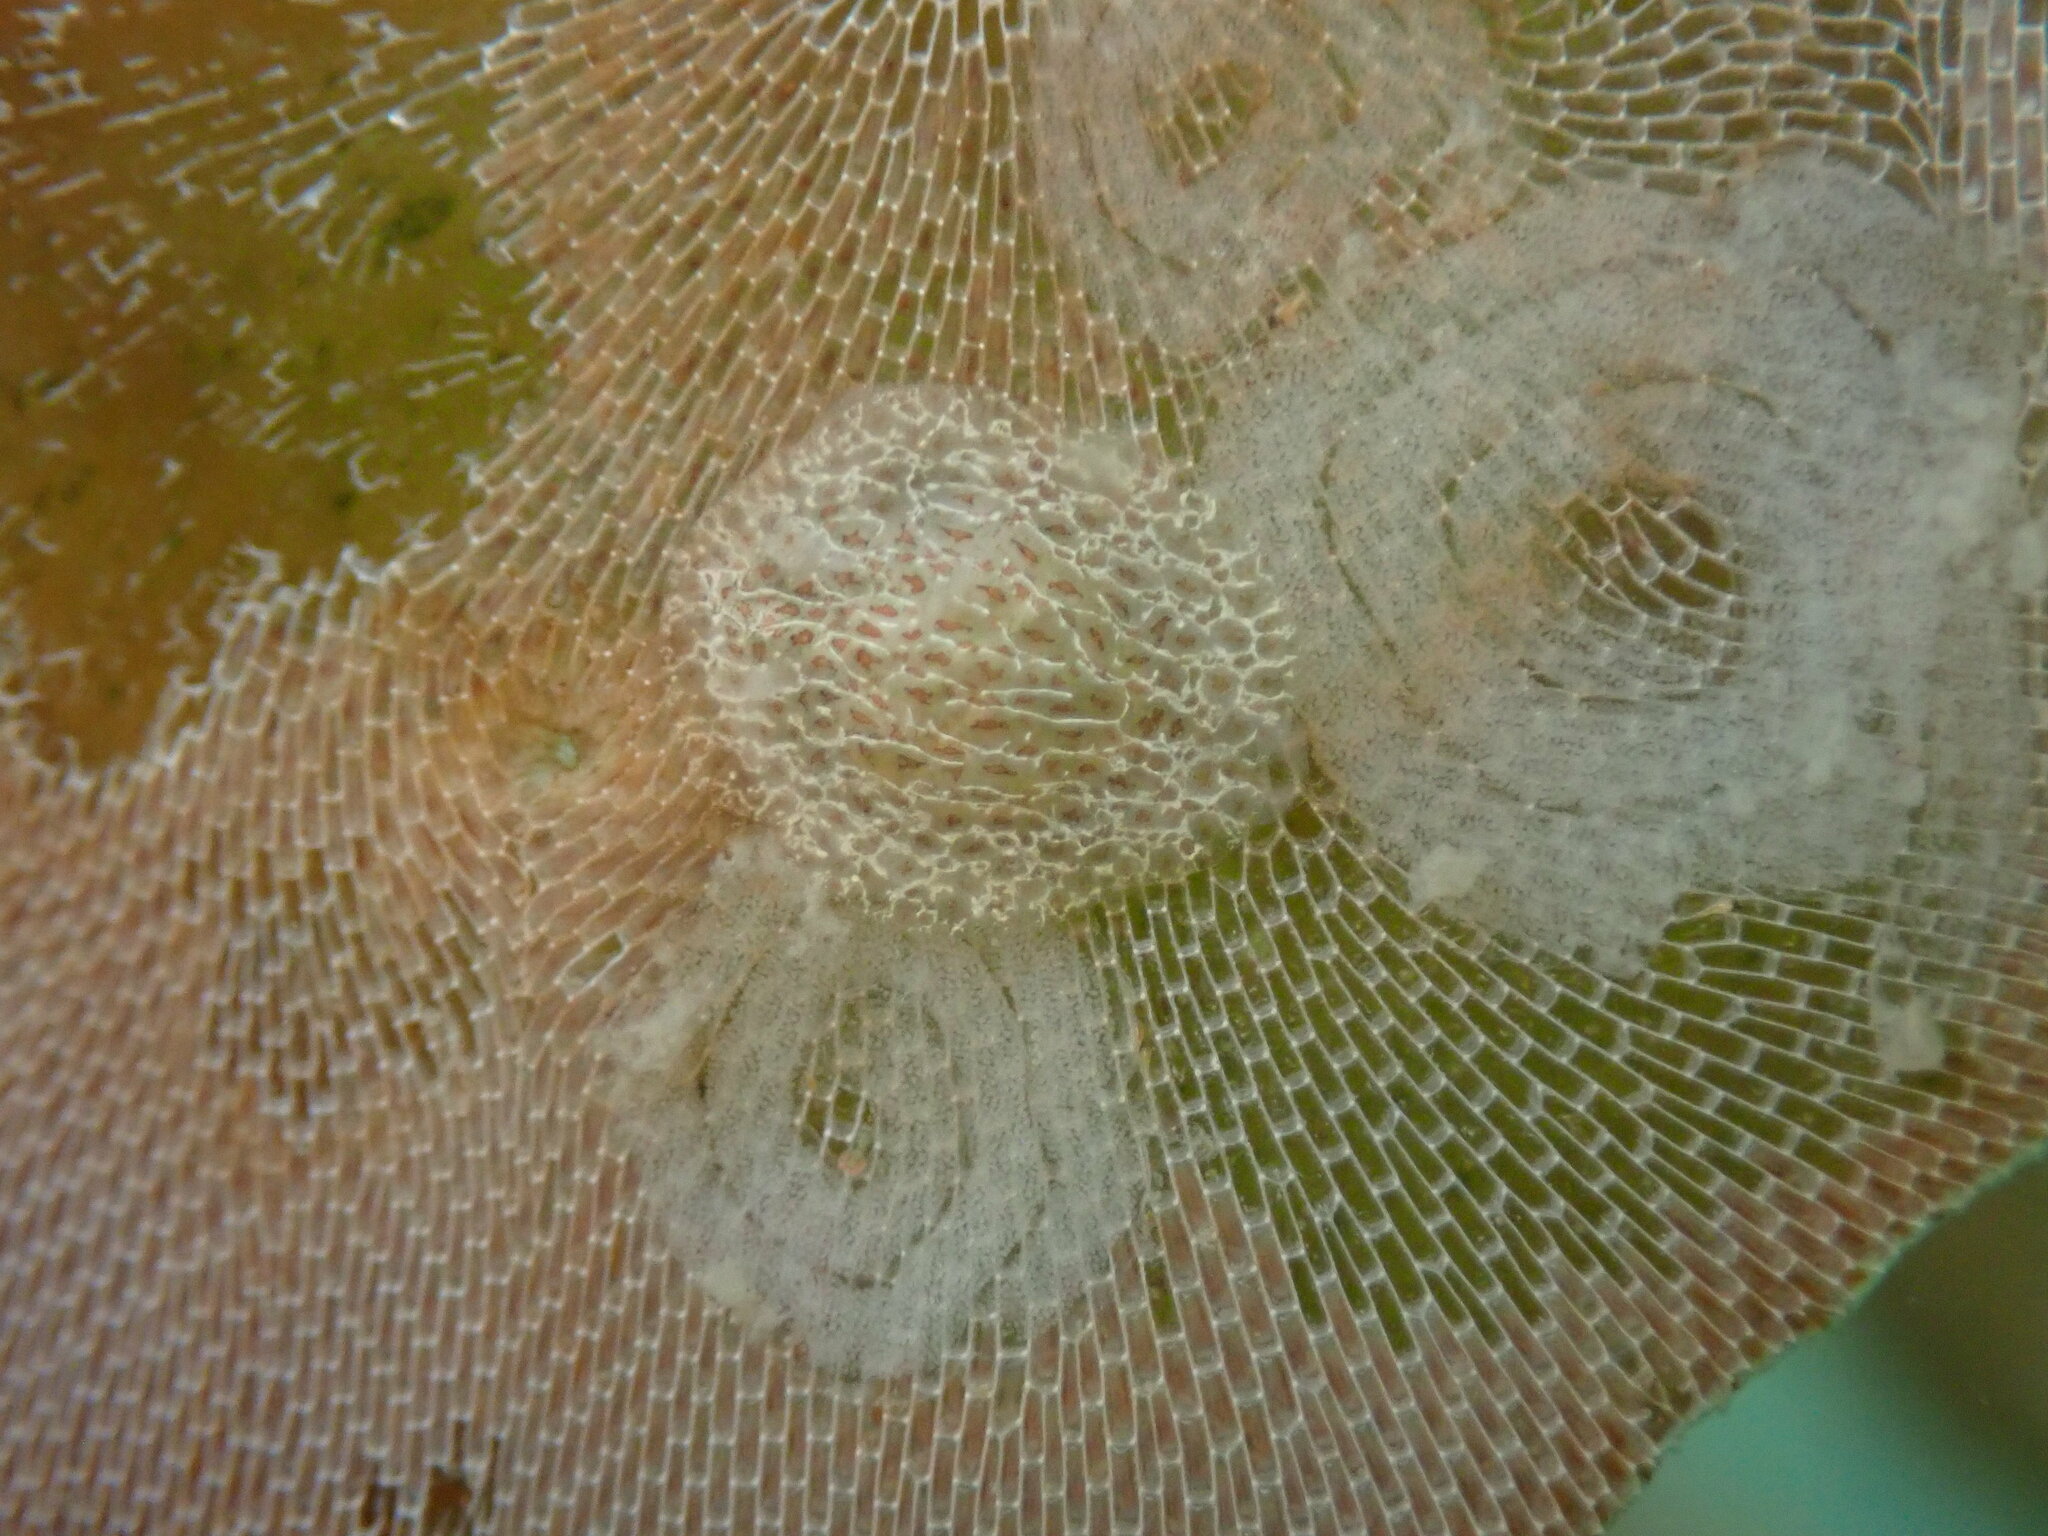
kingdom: Animalia
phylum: Mollusca
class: Gastropoda
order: Nudibranchia
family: Corambidae
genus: Corambe
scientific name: Corambe pacifica
